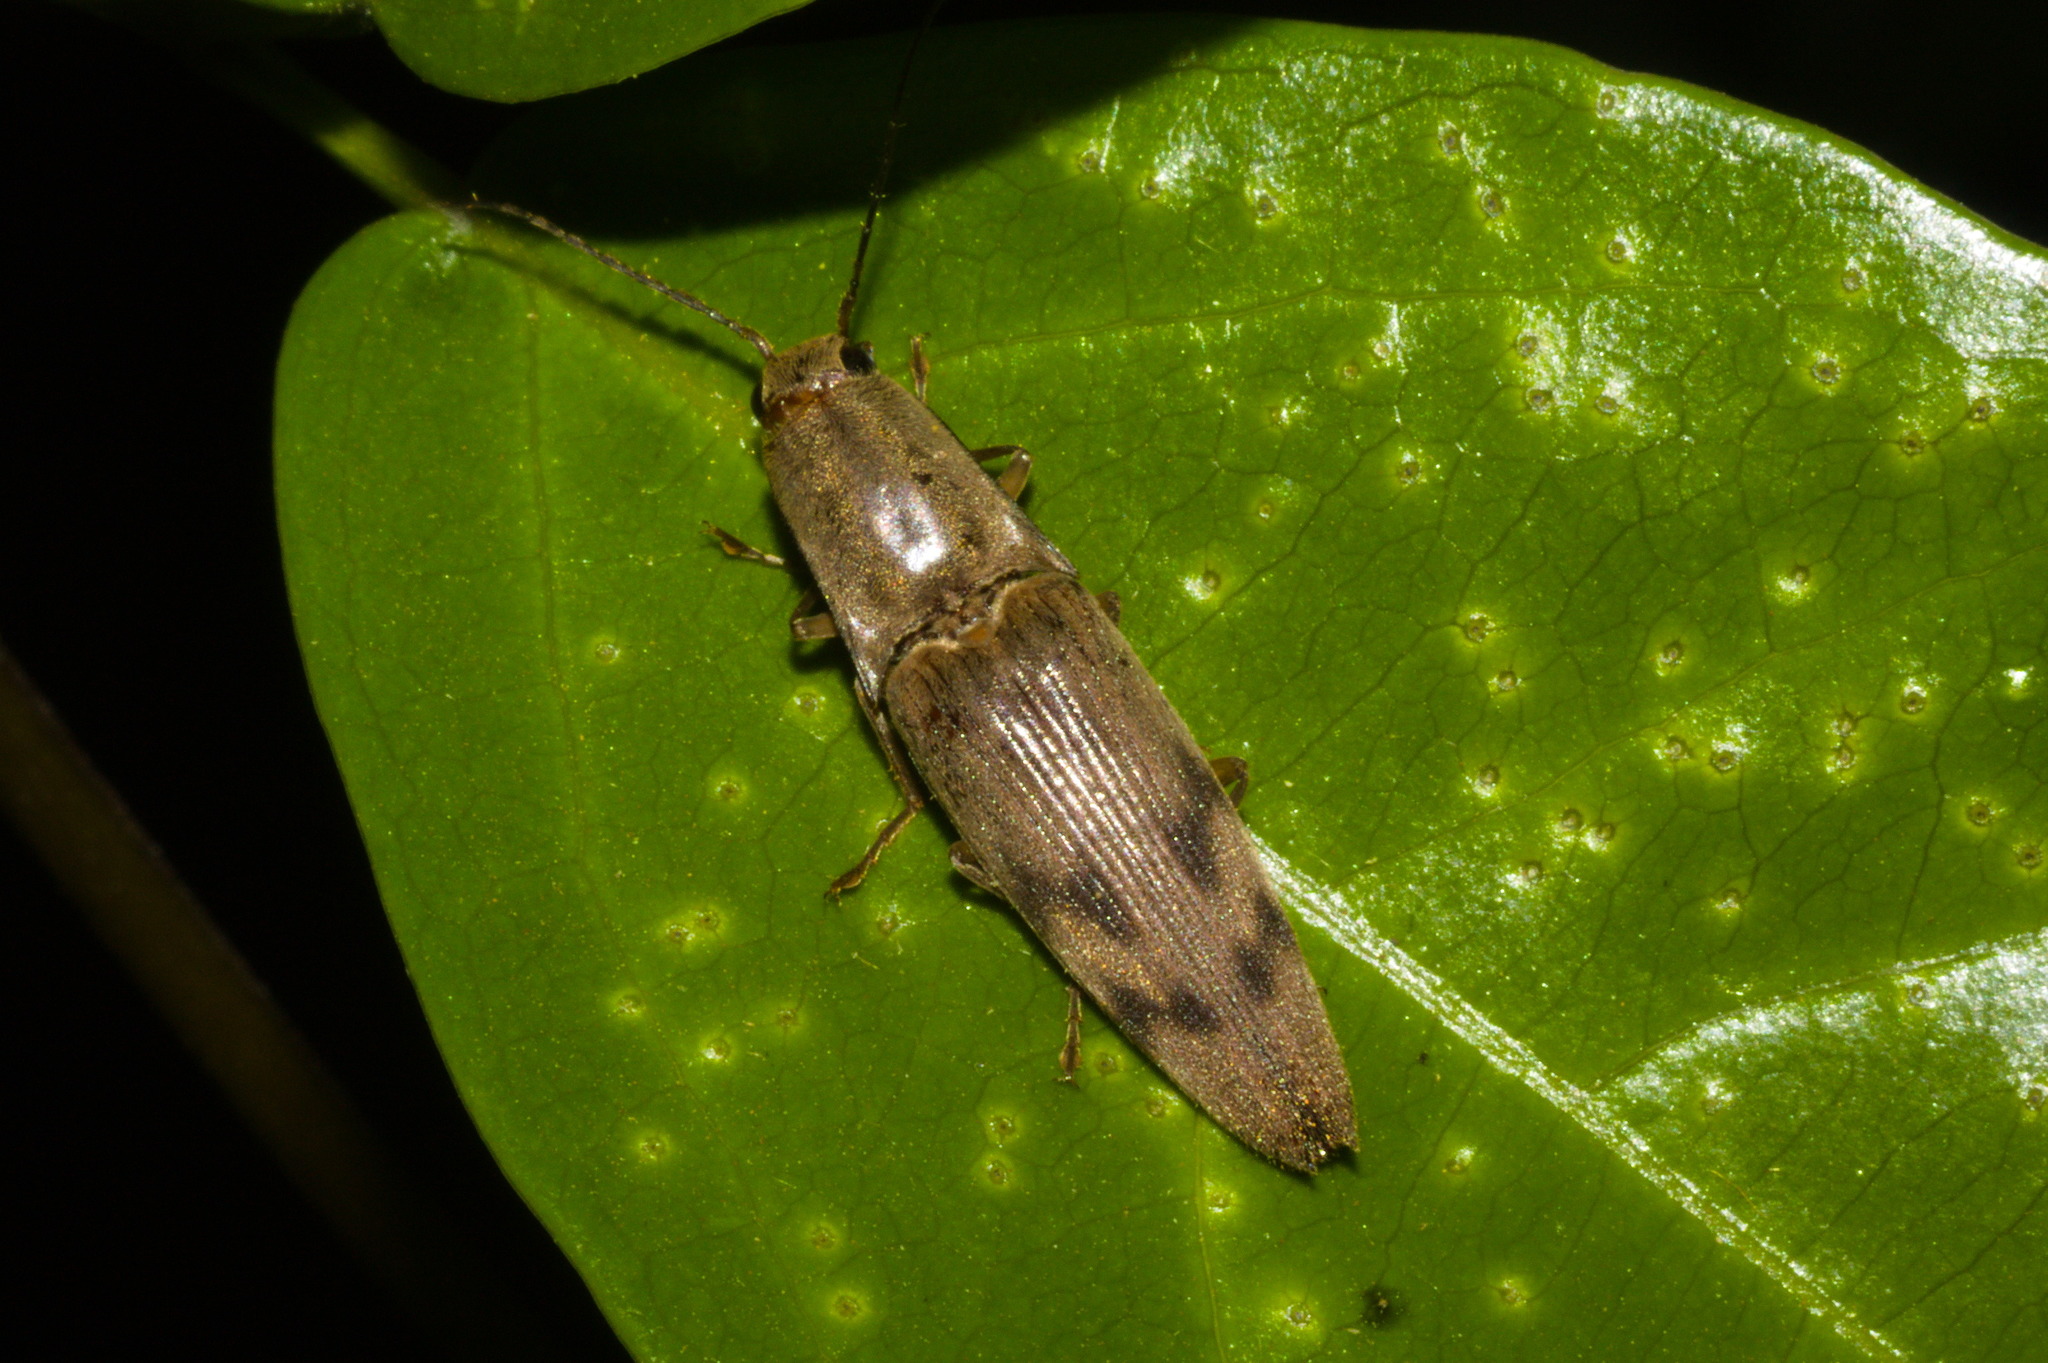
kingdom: Animalia
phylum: Arthropoda
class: Insecta
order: Coleoptera
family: Elateridae
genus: Monocrepidius
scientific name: Monocrepidius
